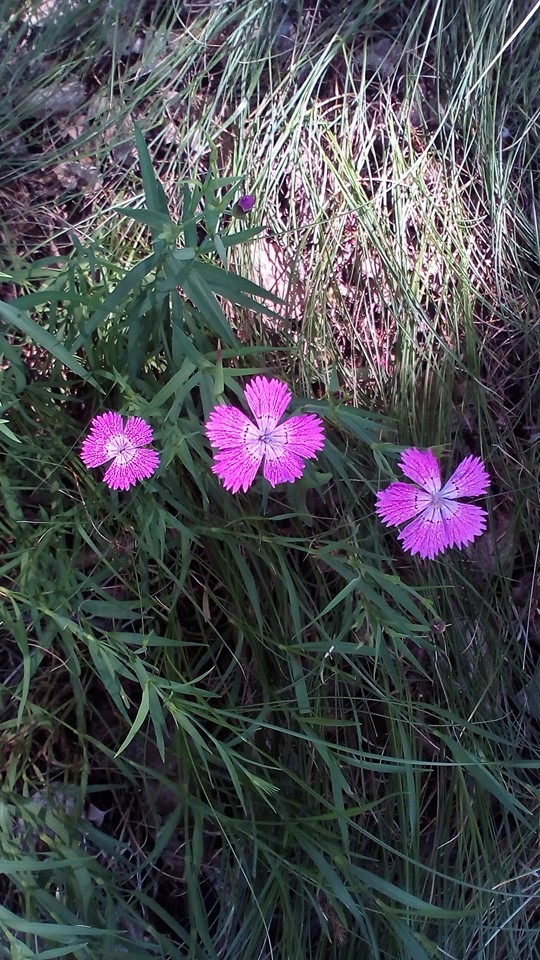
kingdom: Plantae
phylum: Tracheophyta
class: Magnoliopsida
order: Caryophyllales
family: Caryophyllaceae
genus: Dianthus
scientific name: Dianthus chinensis
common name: Rainbow pink
